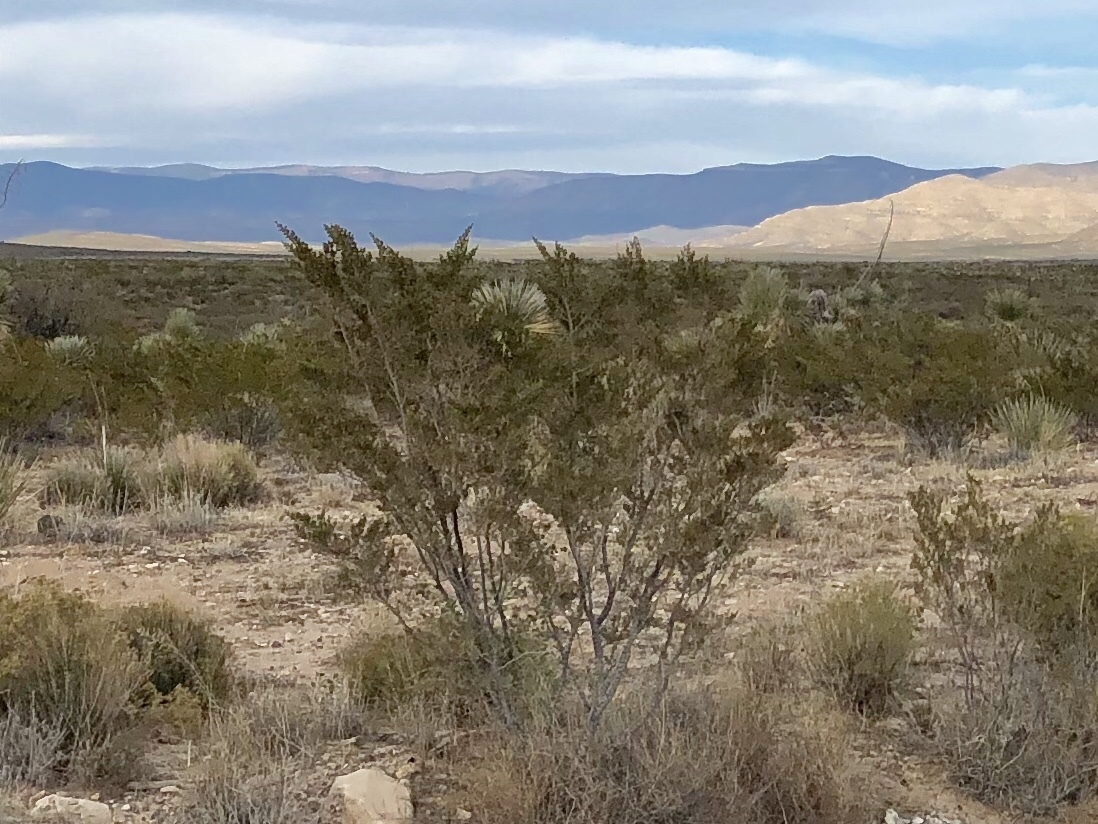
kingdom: Plantae
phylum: Tracheophyta
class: Magnoliopsida
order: Zygophyllales
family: Zygophyllaceae
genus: Larrea
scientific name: Larrea tridentata
